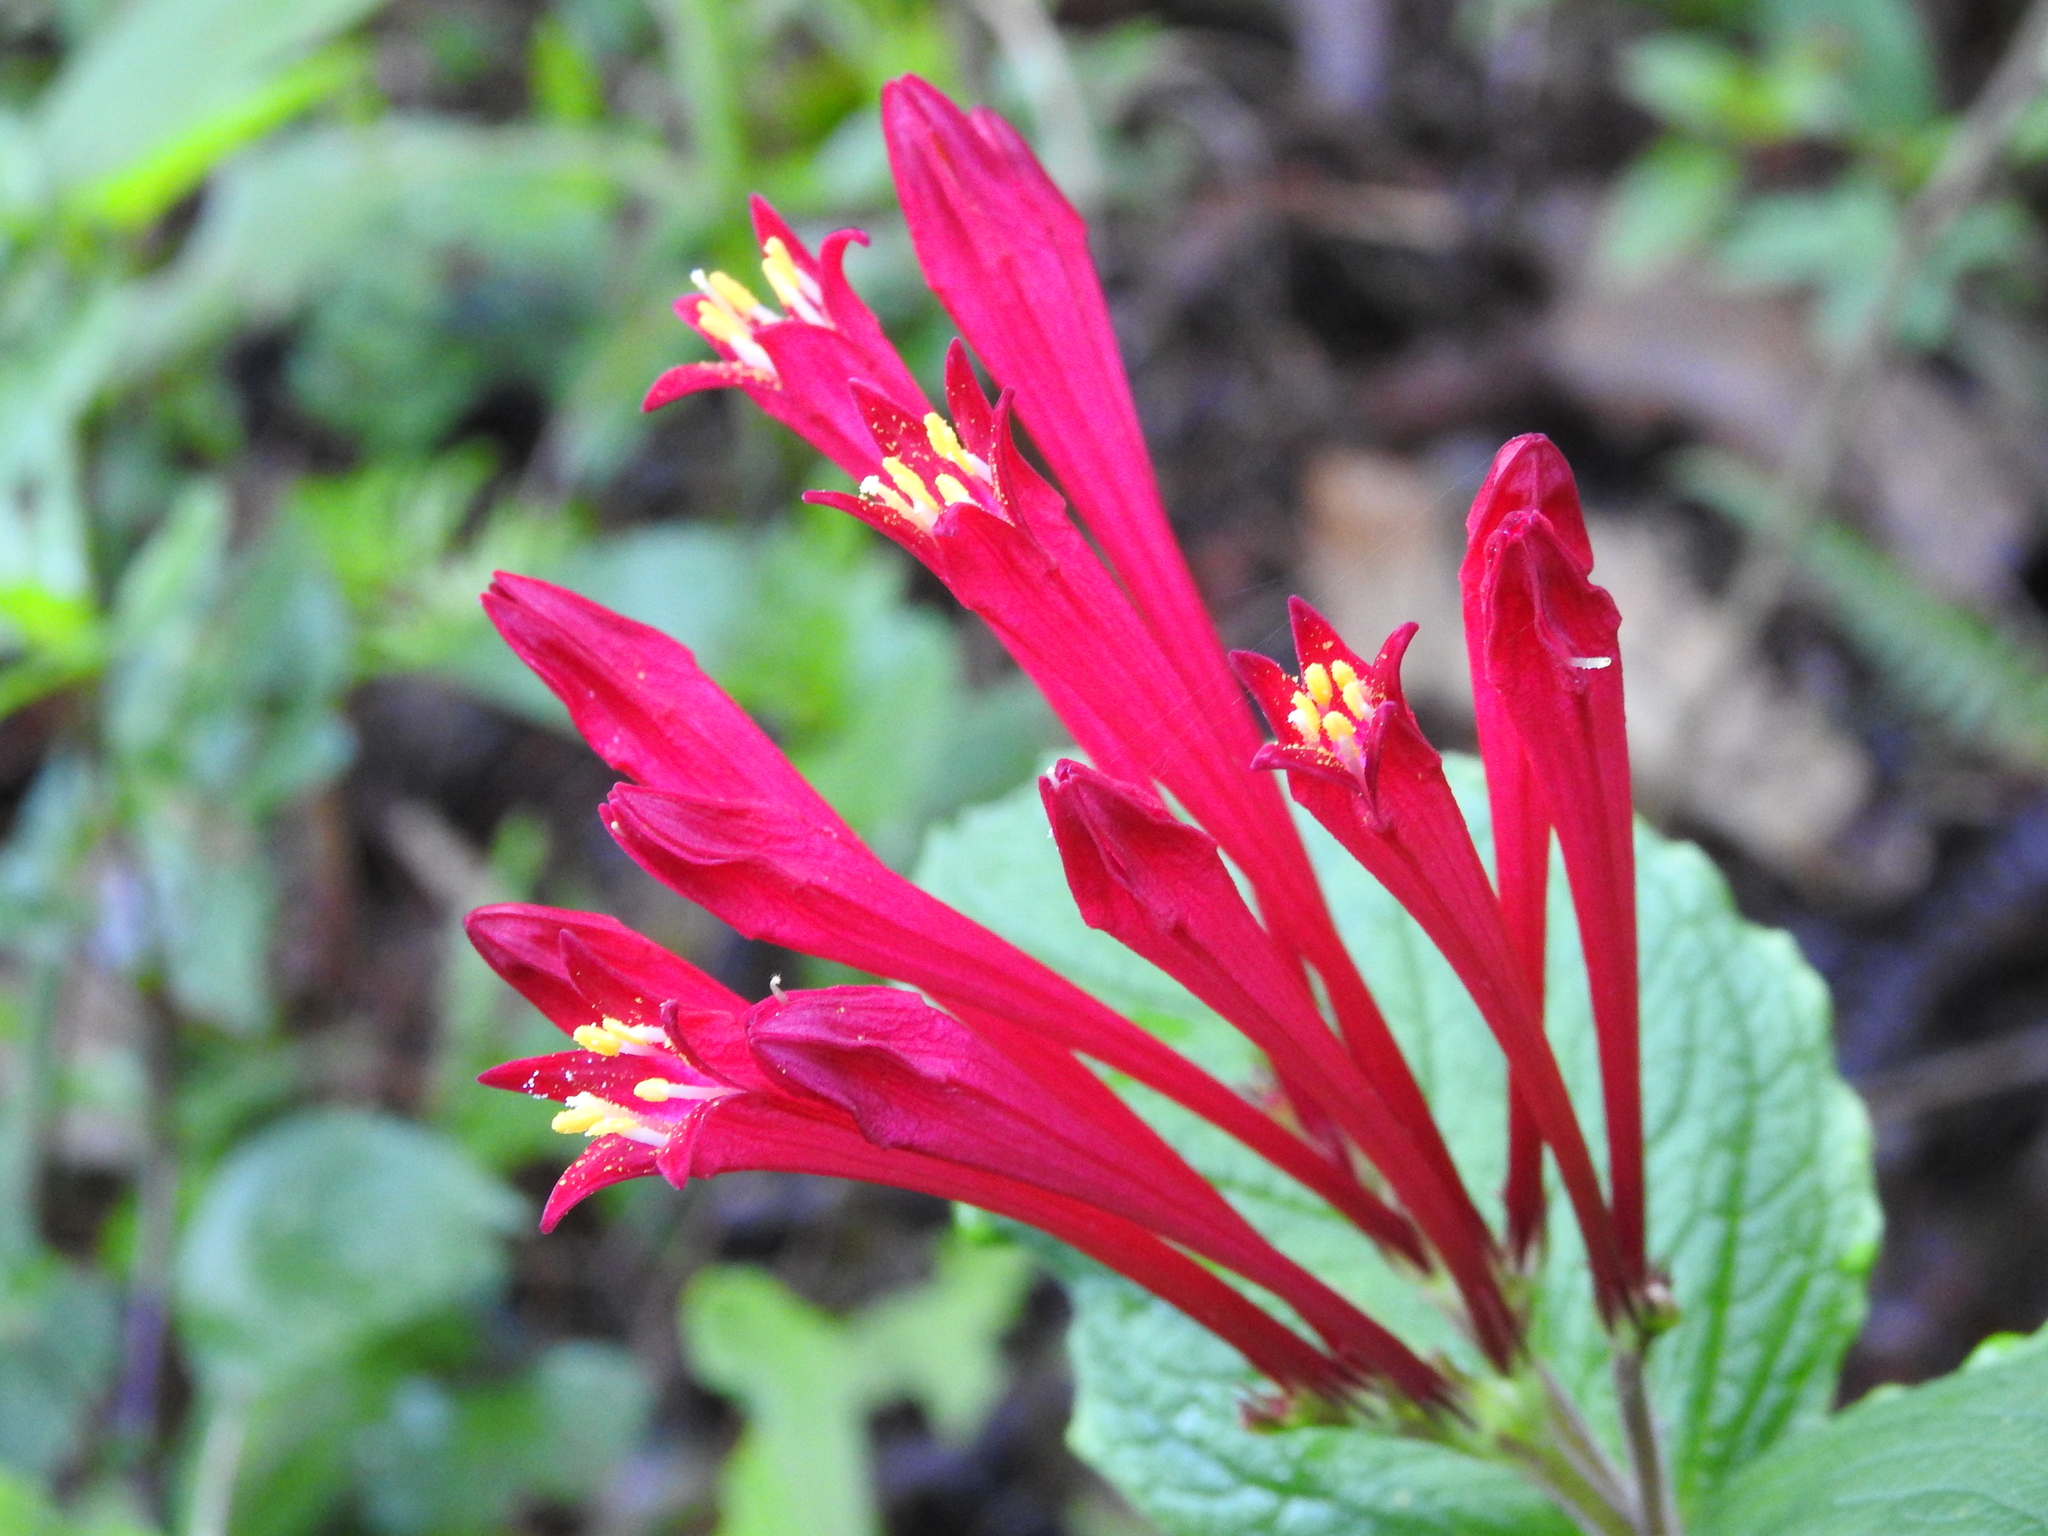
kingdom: Plantae
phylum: Tracheophyta
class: Magnoliopsida
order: Gentianales
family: Loganiaceae
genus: Spigelia
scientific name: Spigelia longiflora
